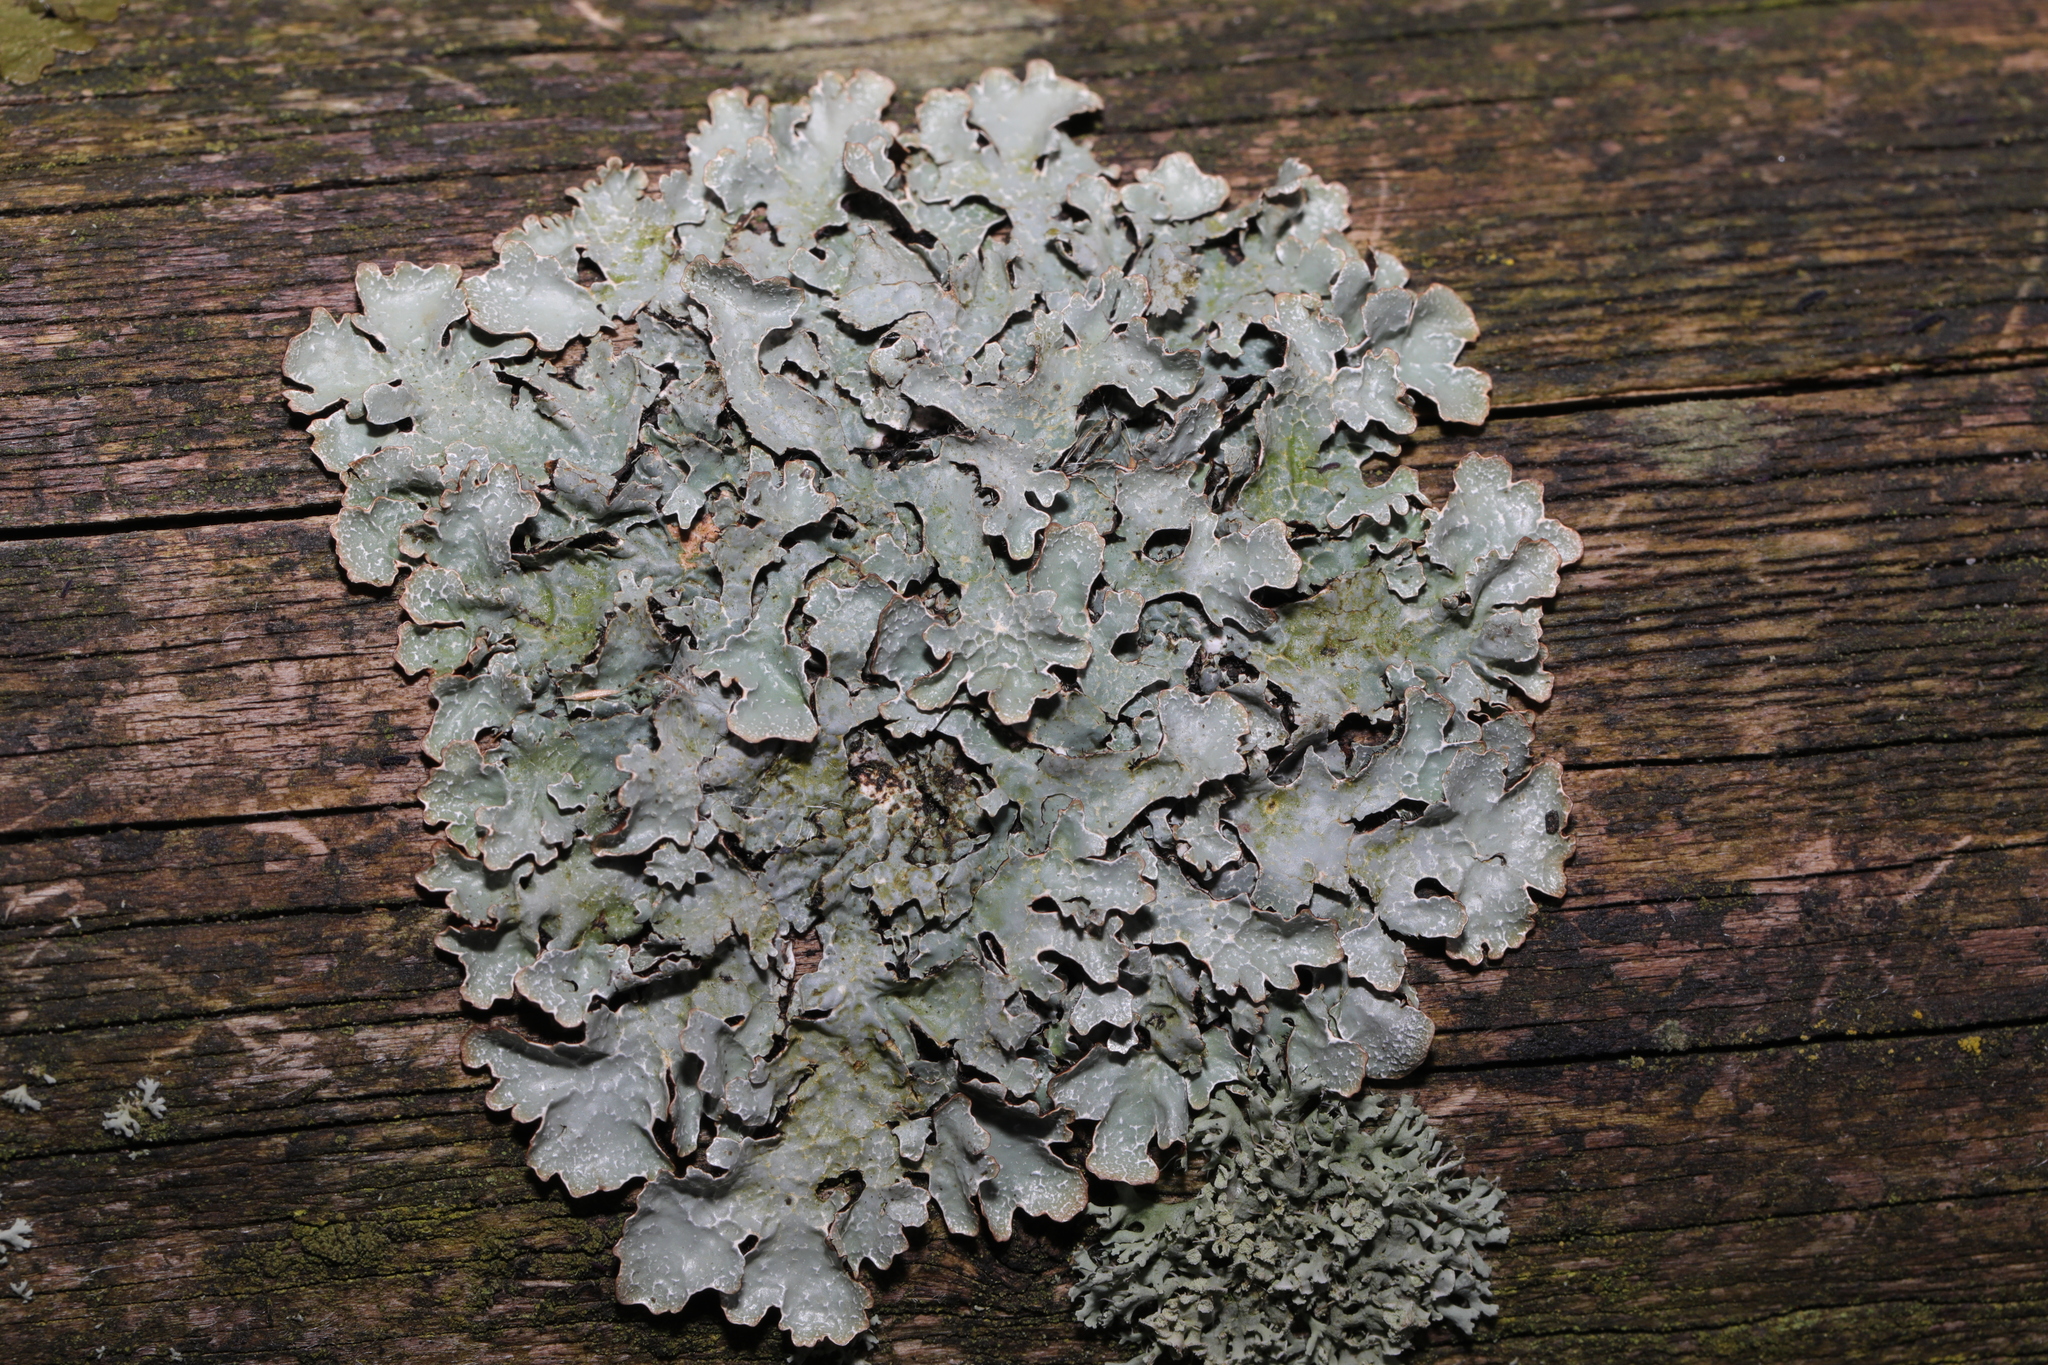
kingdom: Fungi
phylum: Ascomycota
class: Lecanoromycetes
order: Lecanorales
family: Parmeliaceae
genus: Parmelia
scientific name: Parmelia sulcata
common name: Netted shield lichen
